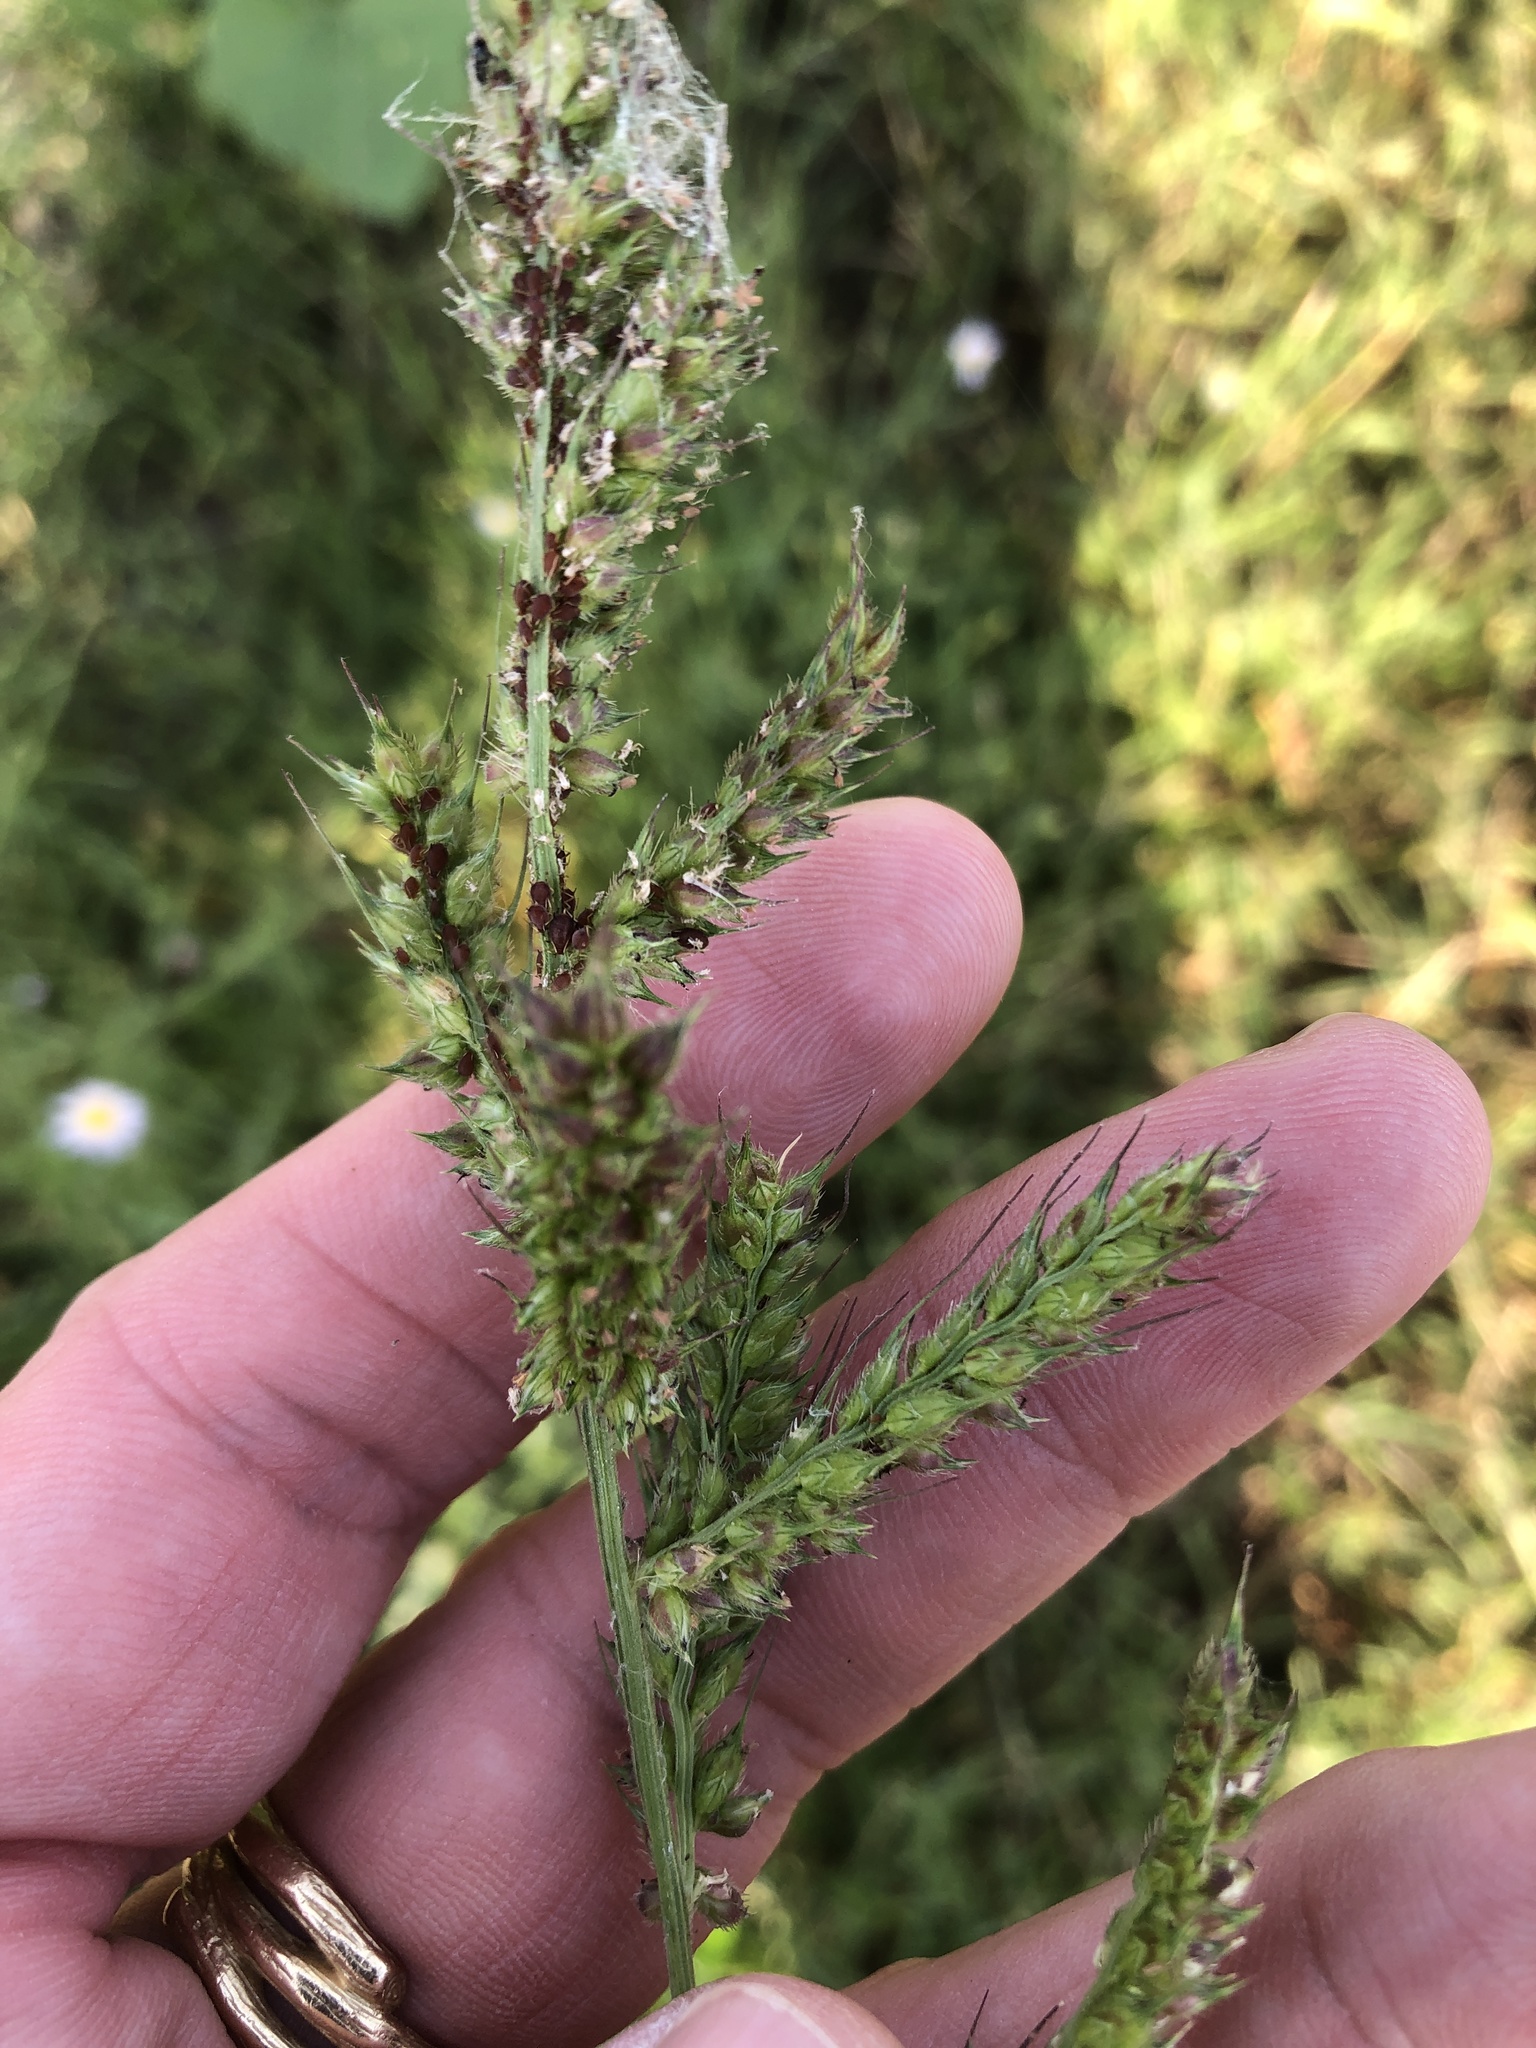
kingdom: Plantae
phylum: Tracheophyta
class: Liliopsida
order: Poales
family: Poaceae
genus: Echinochloa
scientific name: Echinochloa crus-galli
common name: Cockspur
